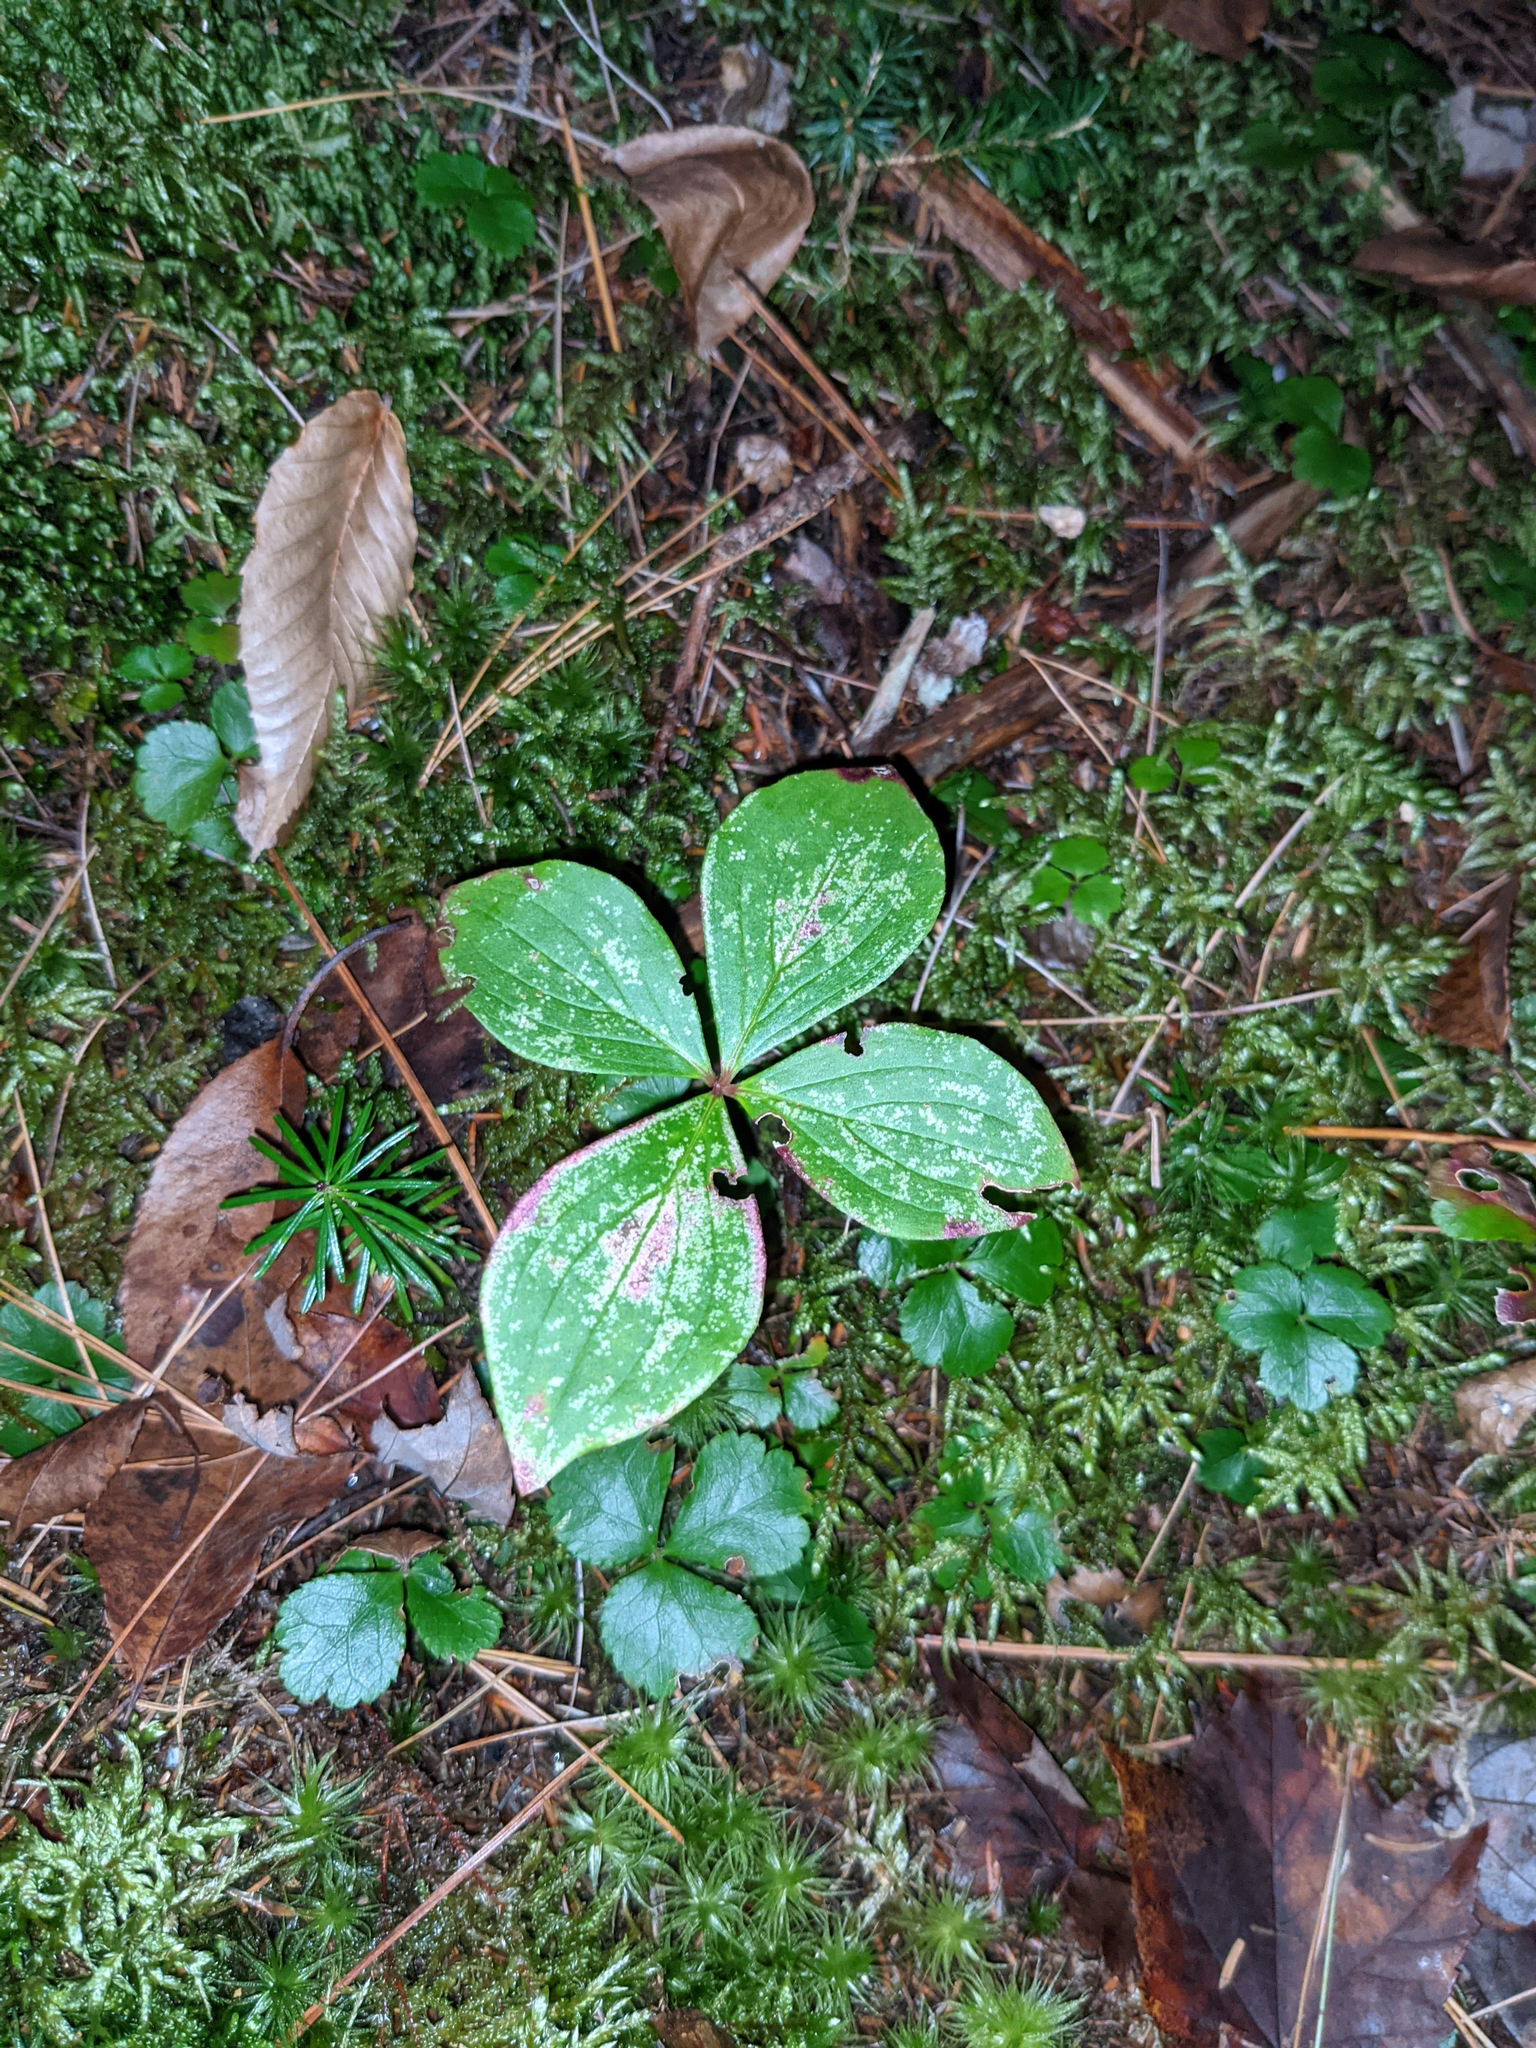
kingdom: Plantae
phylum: Tracheophyta
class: Magnoliopsida
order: Cornales
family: Cornaceae
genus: Cornus
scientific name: Cornus canadensis
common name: Creeping dogwood
